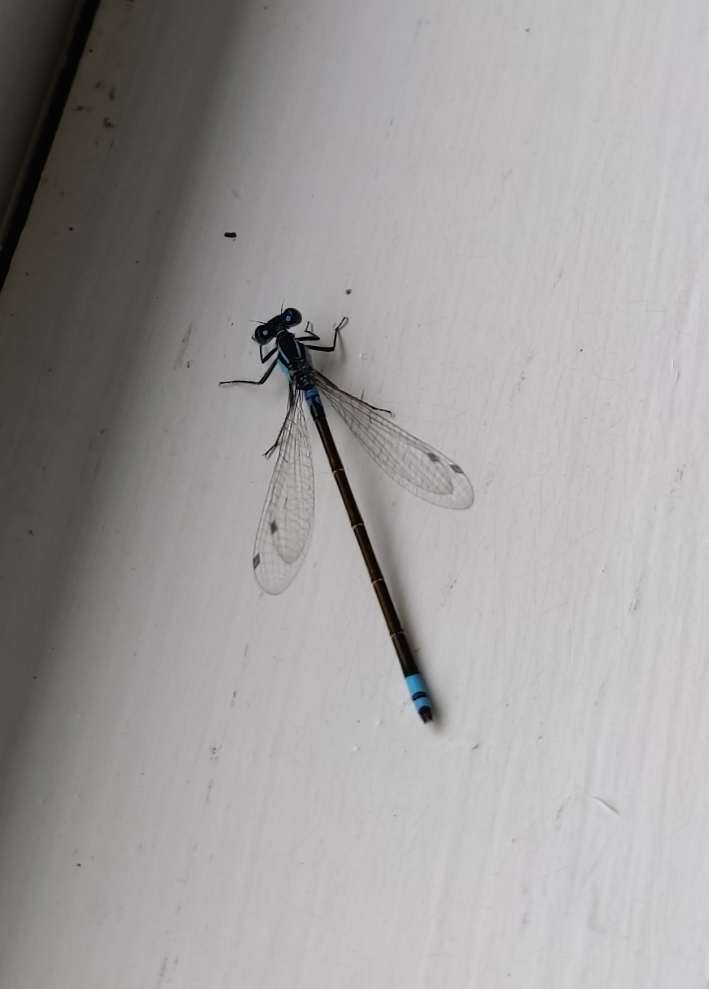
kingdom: Animalia
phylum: Arthropoda
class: Insecta
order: Odonata
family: Coenagrionidae
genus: Ischnura
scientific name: Ischnura heterosticta
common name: Common bluetail
